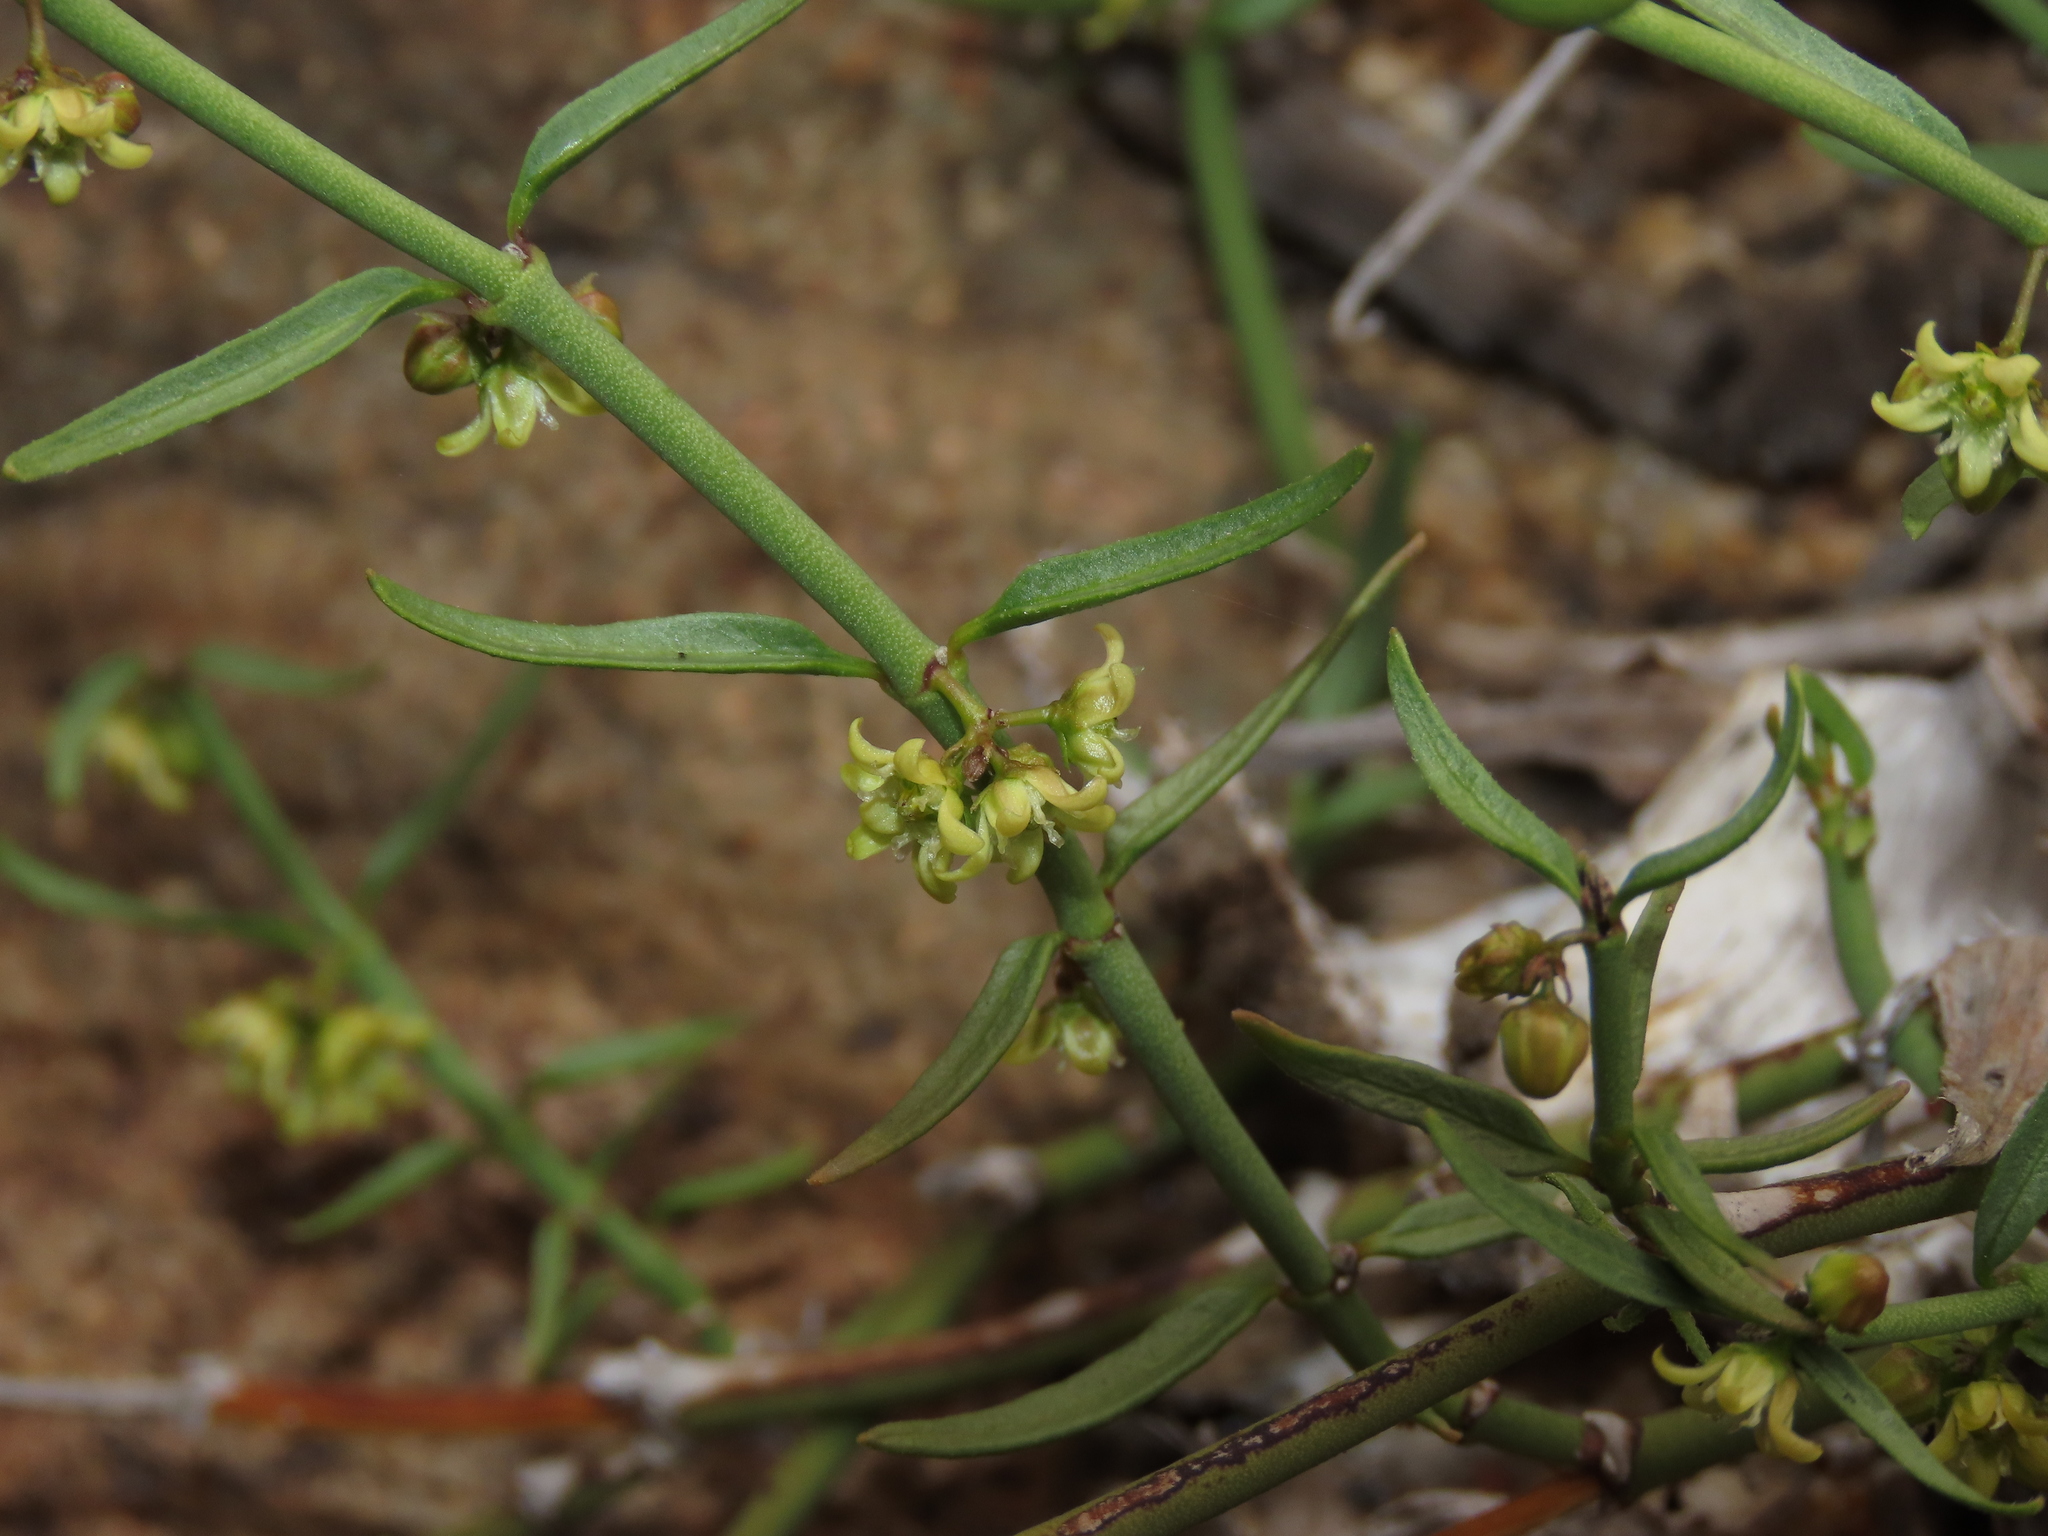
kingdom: Plantae
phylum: Tracheophyta
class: Magnoliopsida
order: Gentianales
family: Apocynaceae
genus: Diplolepis
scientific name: Diplolepis viridis
